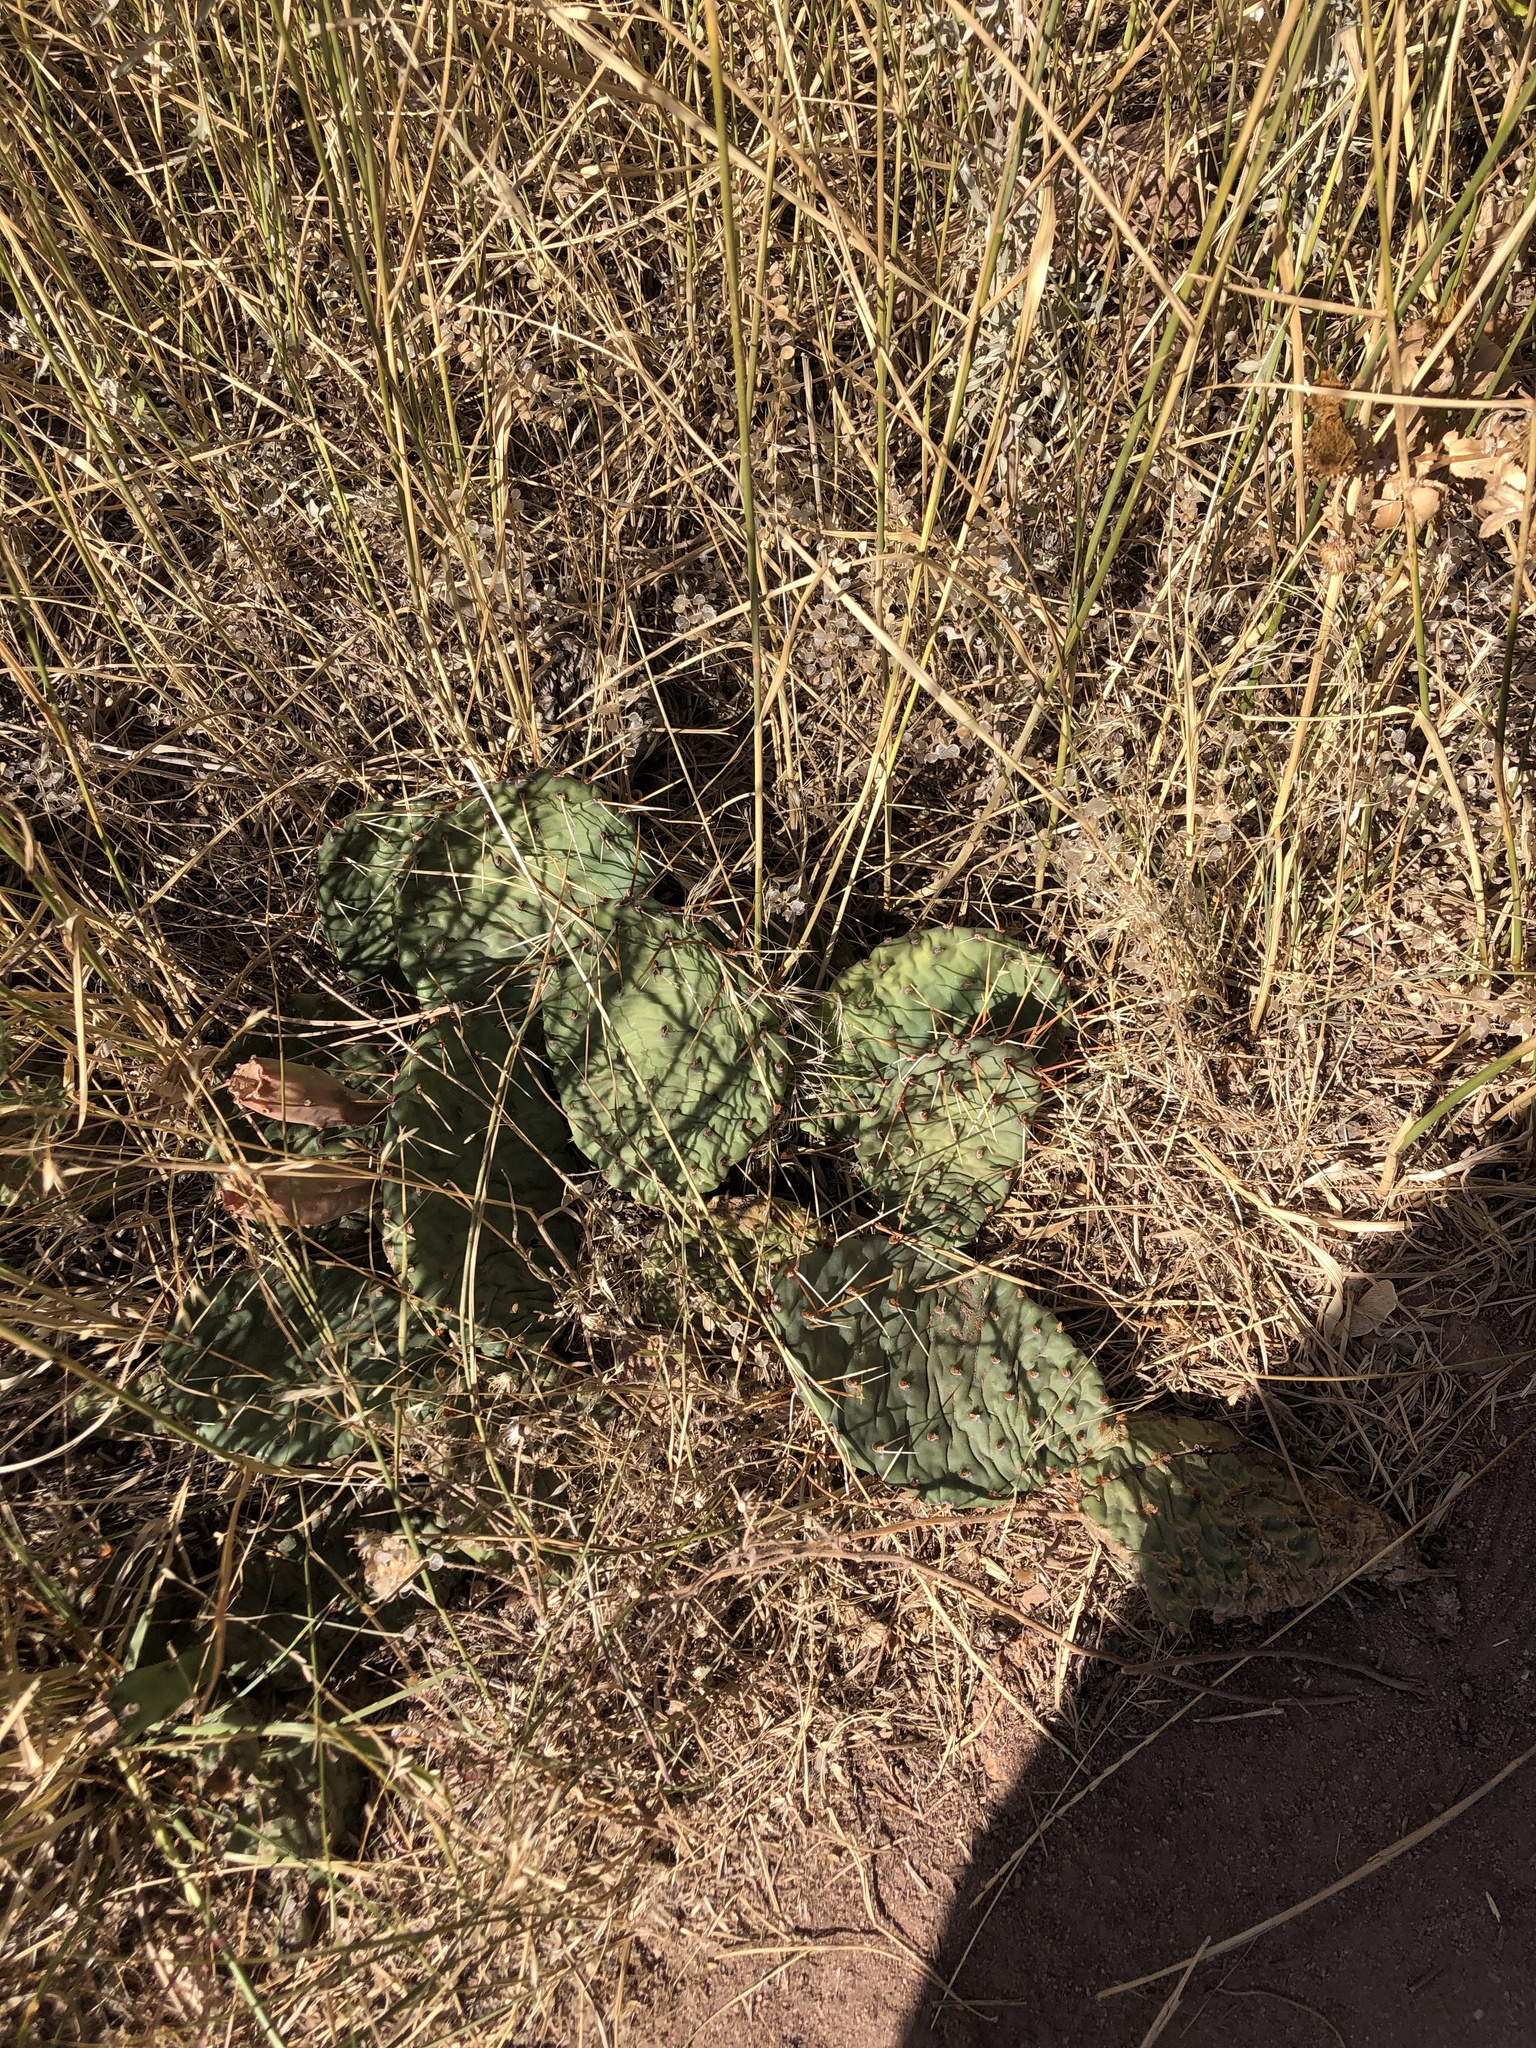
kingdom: Plantae
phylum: Tracheophyta
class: Magnoliopsida
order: Caryophyllales
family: Cactaceae
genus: Opuntia
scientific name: Opuntia macrorhiza
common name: Grassland pricklypear
